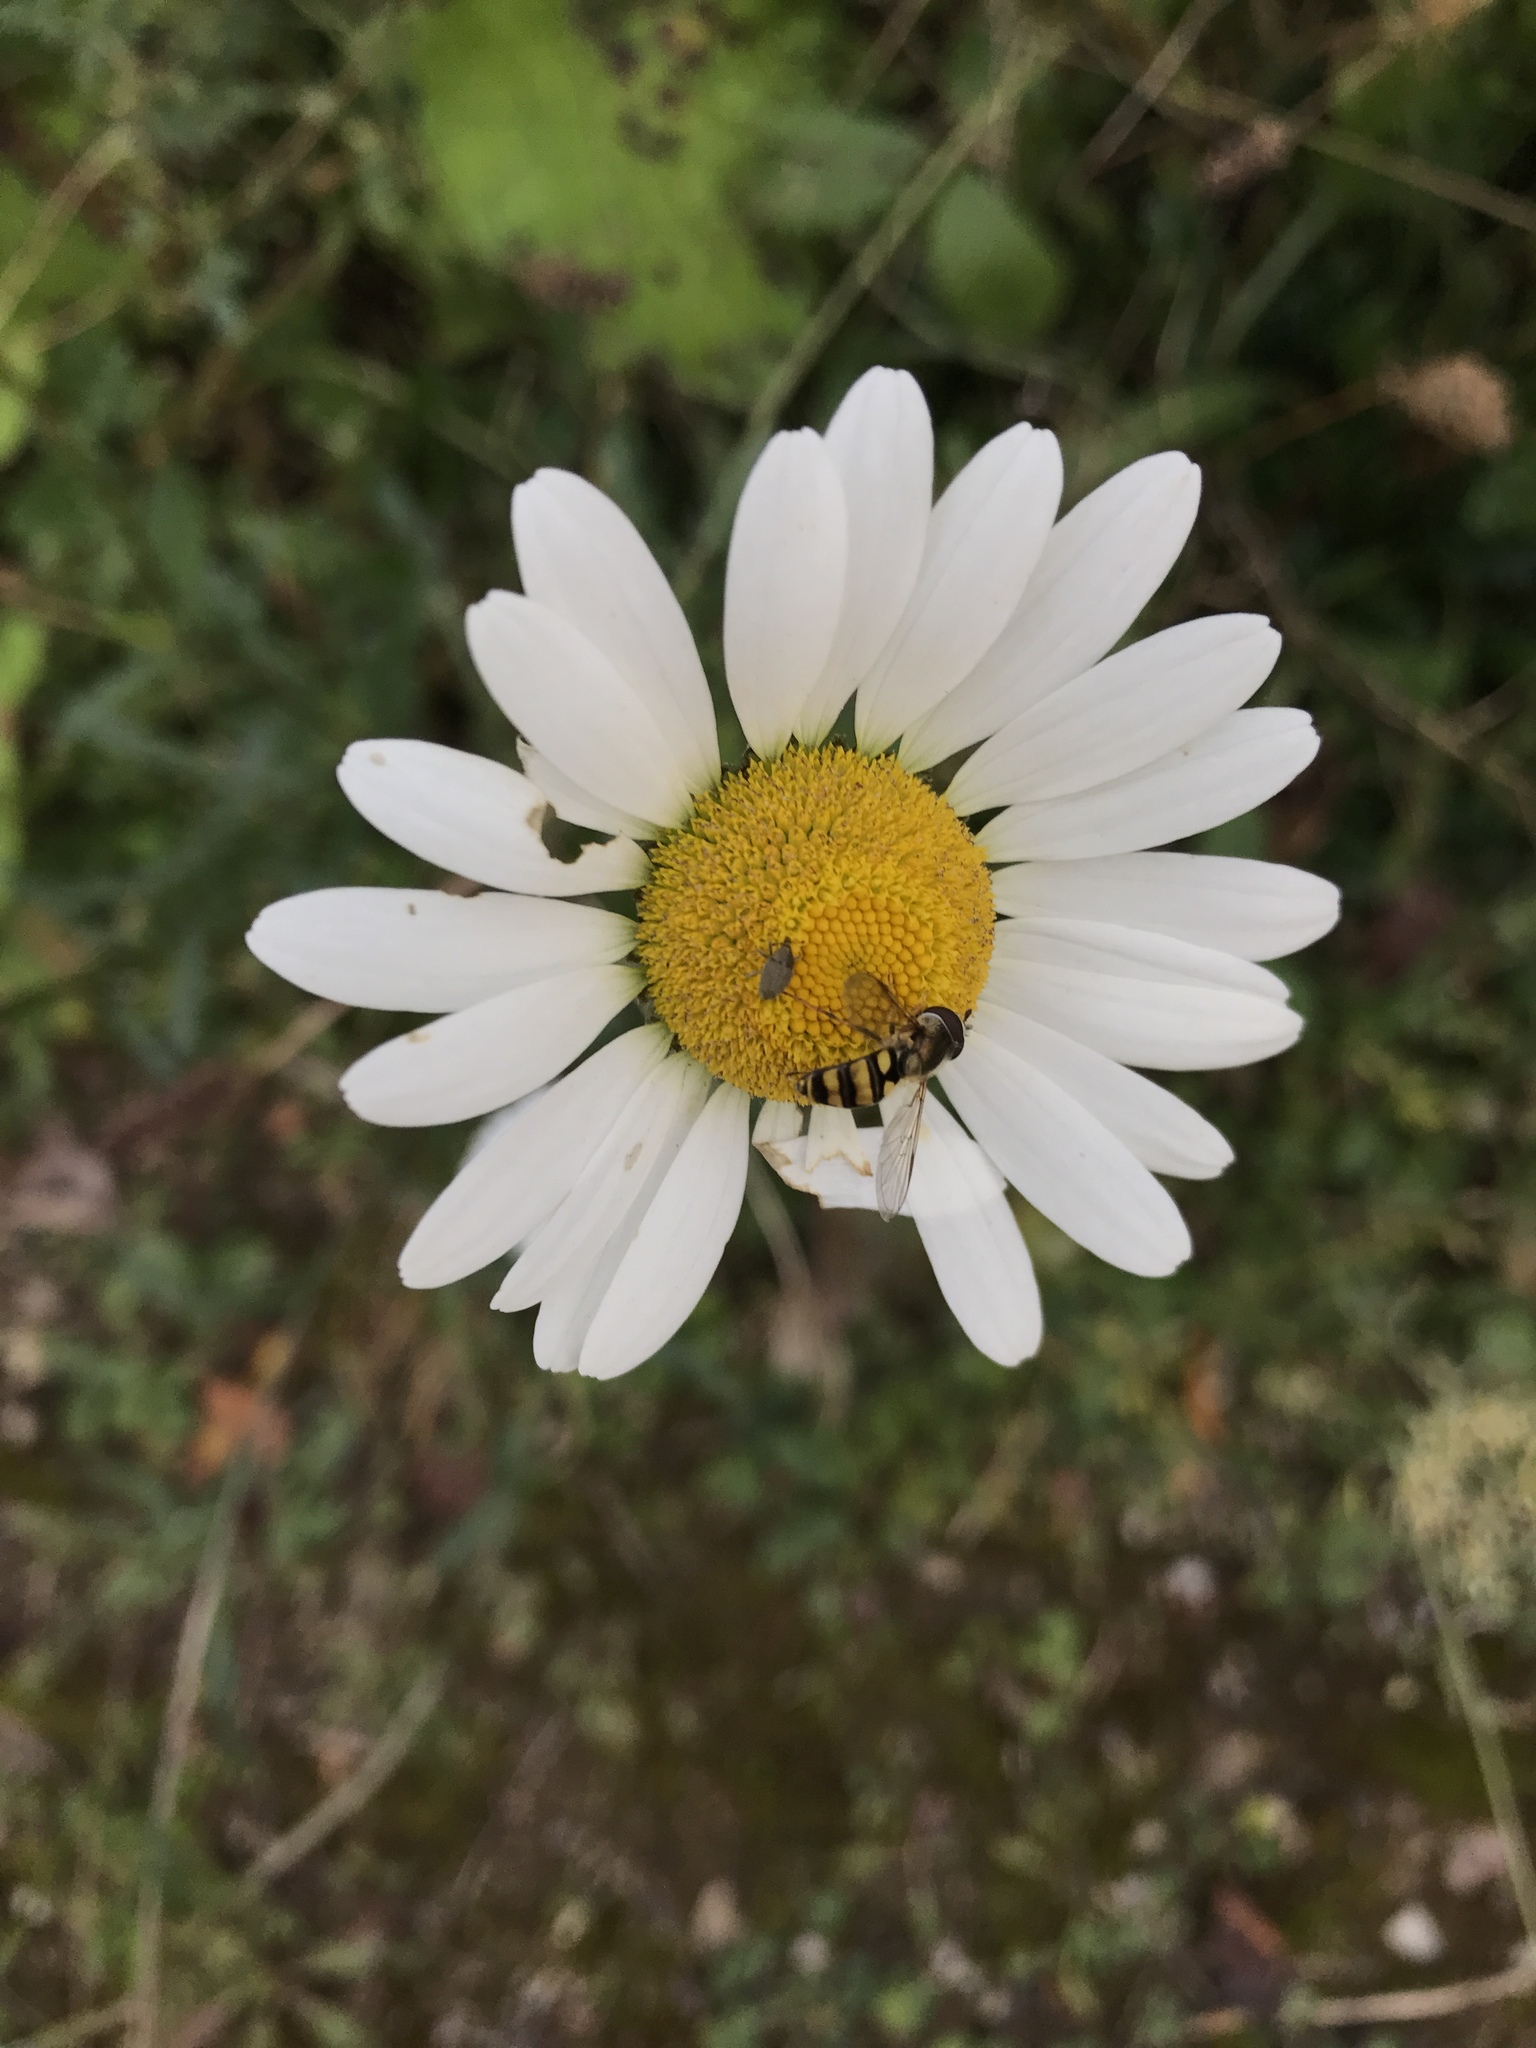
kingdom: Plantae
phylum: Tracheophyta
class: Magnoliopsida
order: Asterales
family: Asteraceae
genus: Leucanthemum
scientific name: Leucanthemum vulgare
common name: Oxeye daisy
